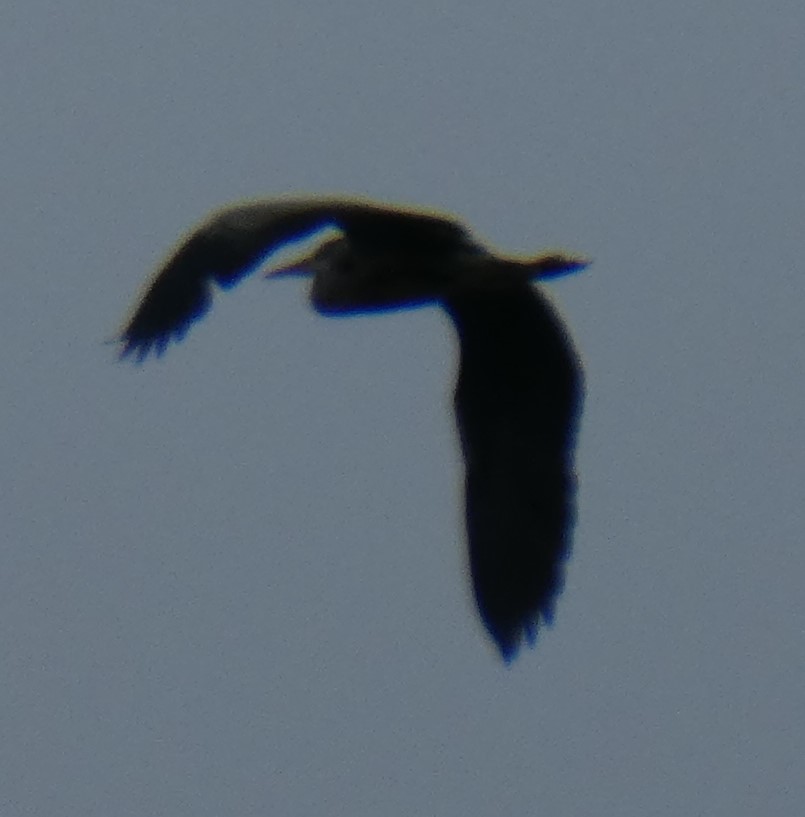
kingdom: Animalia
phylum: Chordata
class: Aves
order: Pelecaniformes
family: Ardeidae
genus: Ardea
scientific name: Ardea cinerea
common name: Grey heron
